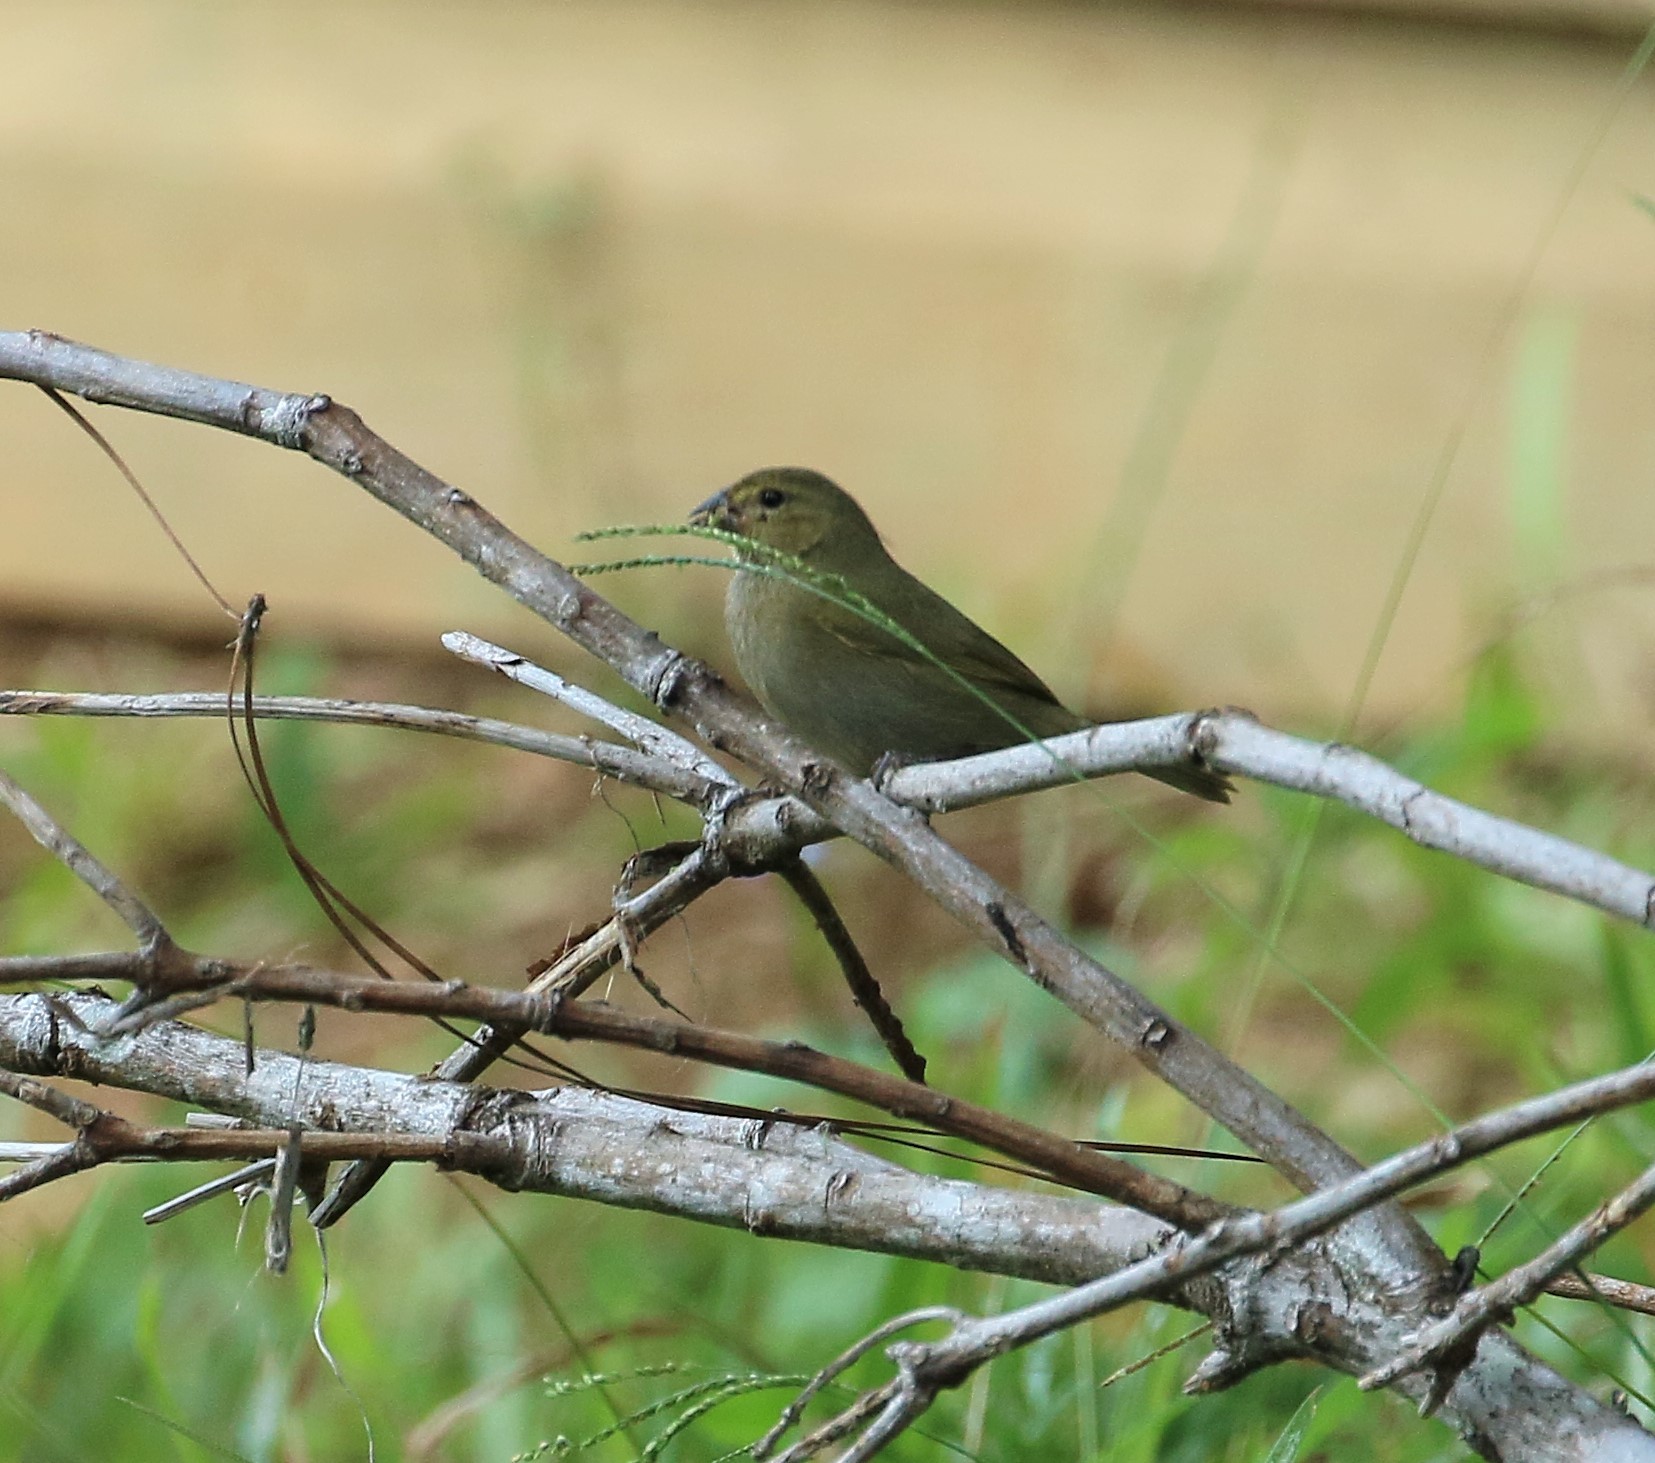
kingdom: Animalia
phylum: Chordata
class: Aves
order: Passeriformes
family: Thraupidae
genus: Tiaris
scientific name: Tiaris olivaceus
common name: Yellow-faced grassquit
